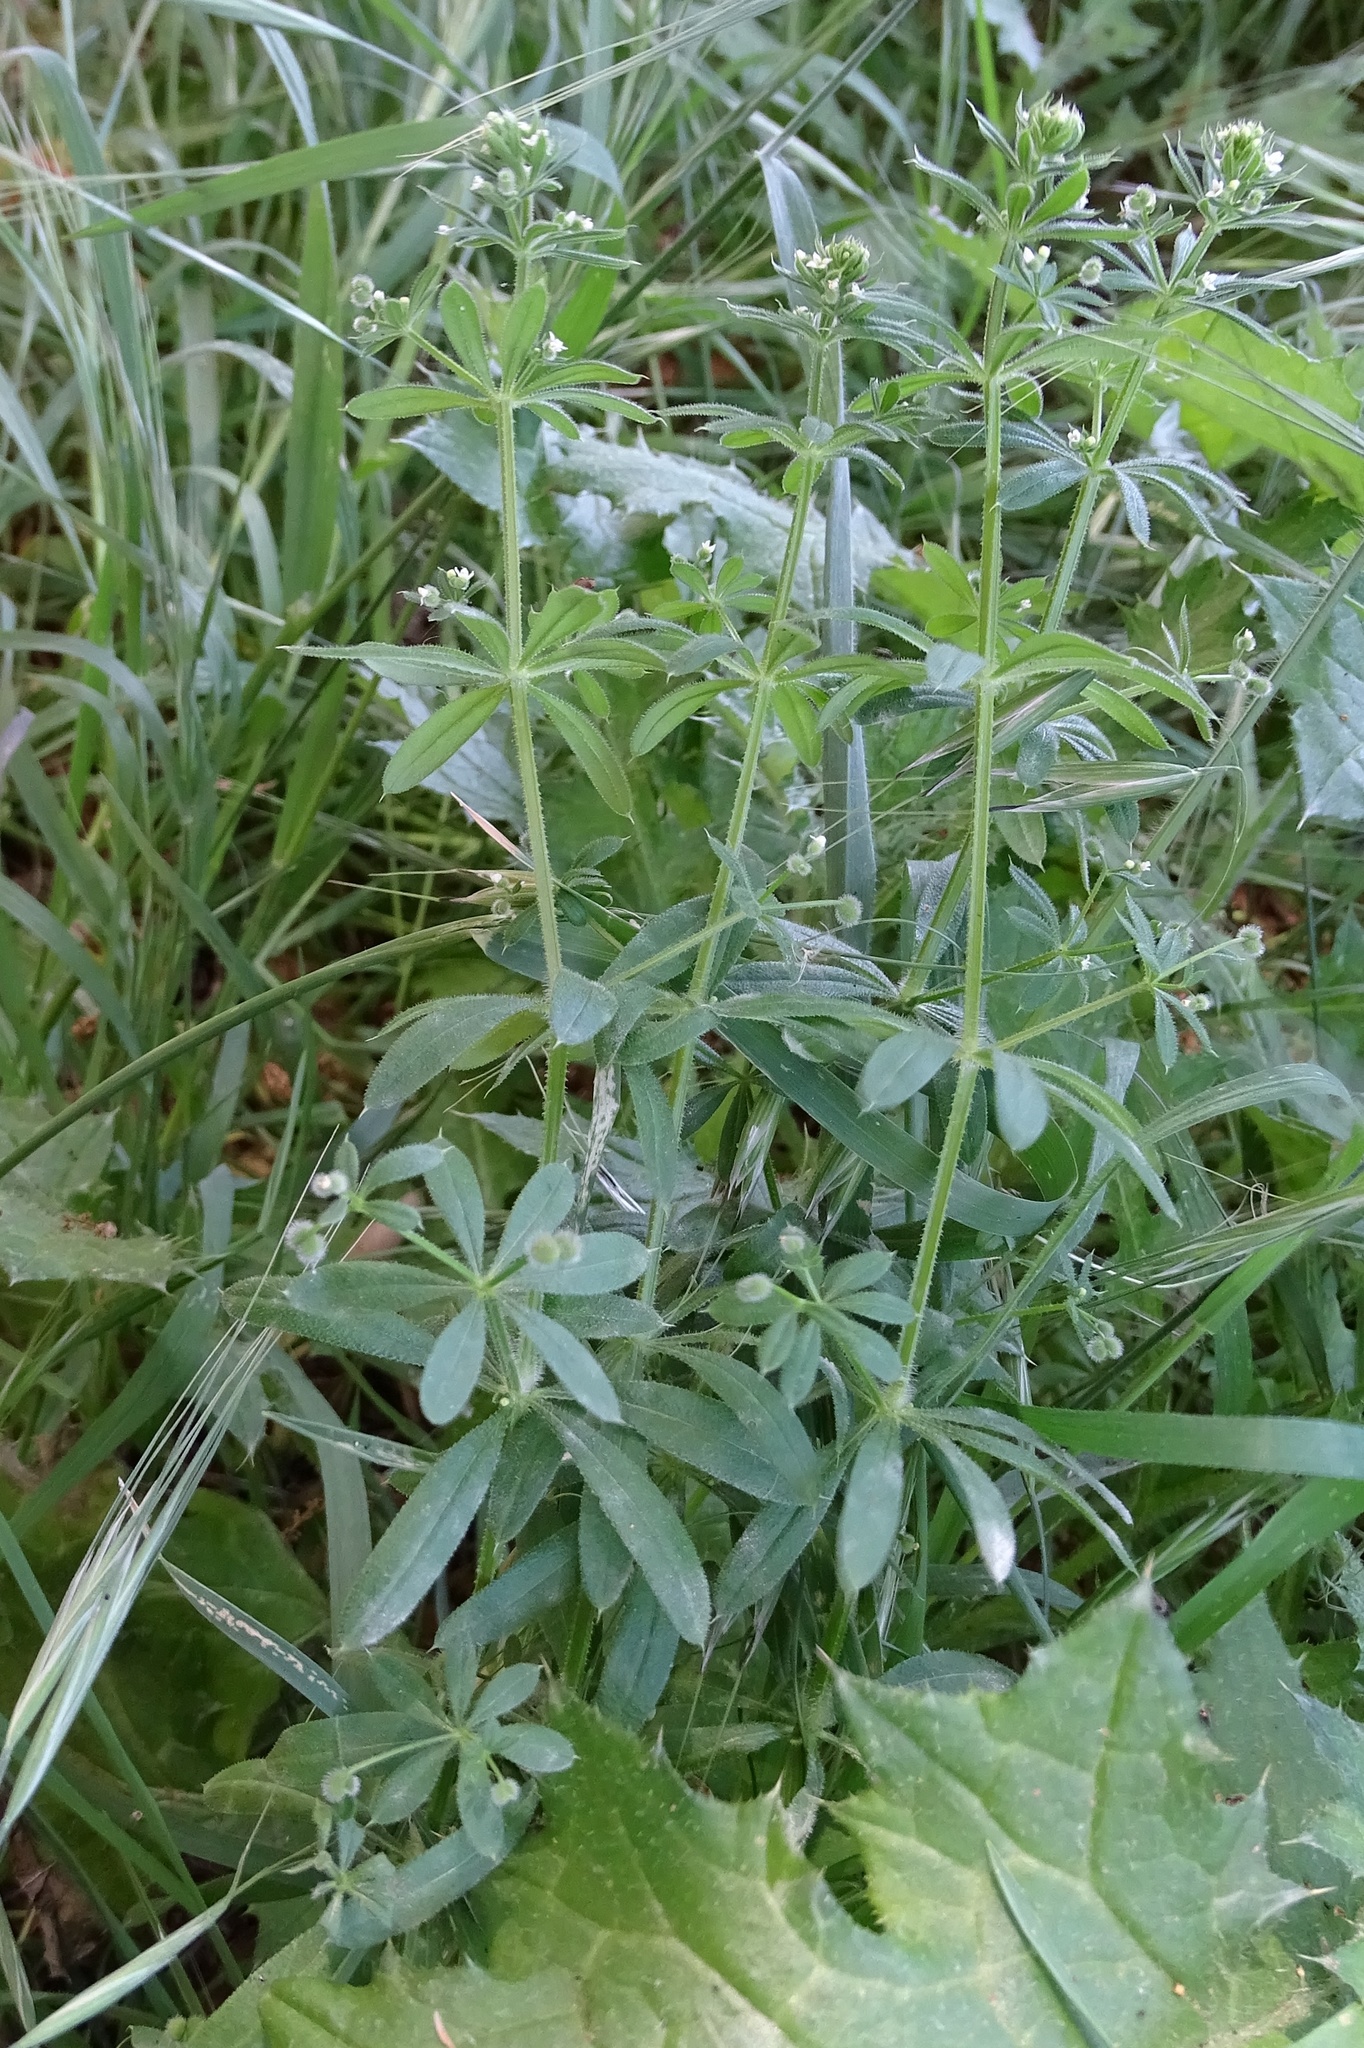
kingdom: Plantae
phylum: Tracheophyta
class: Magnoliopsida
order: Gentianales
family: Rubiaceae
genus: Galium
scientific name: Galium aparine
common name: Cleavers
